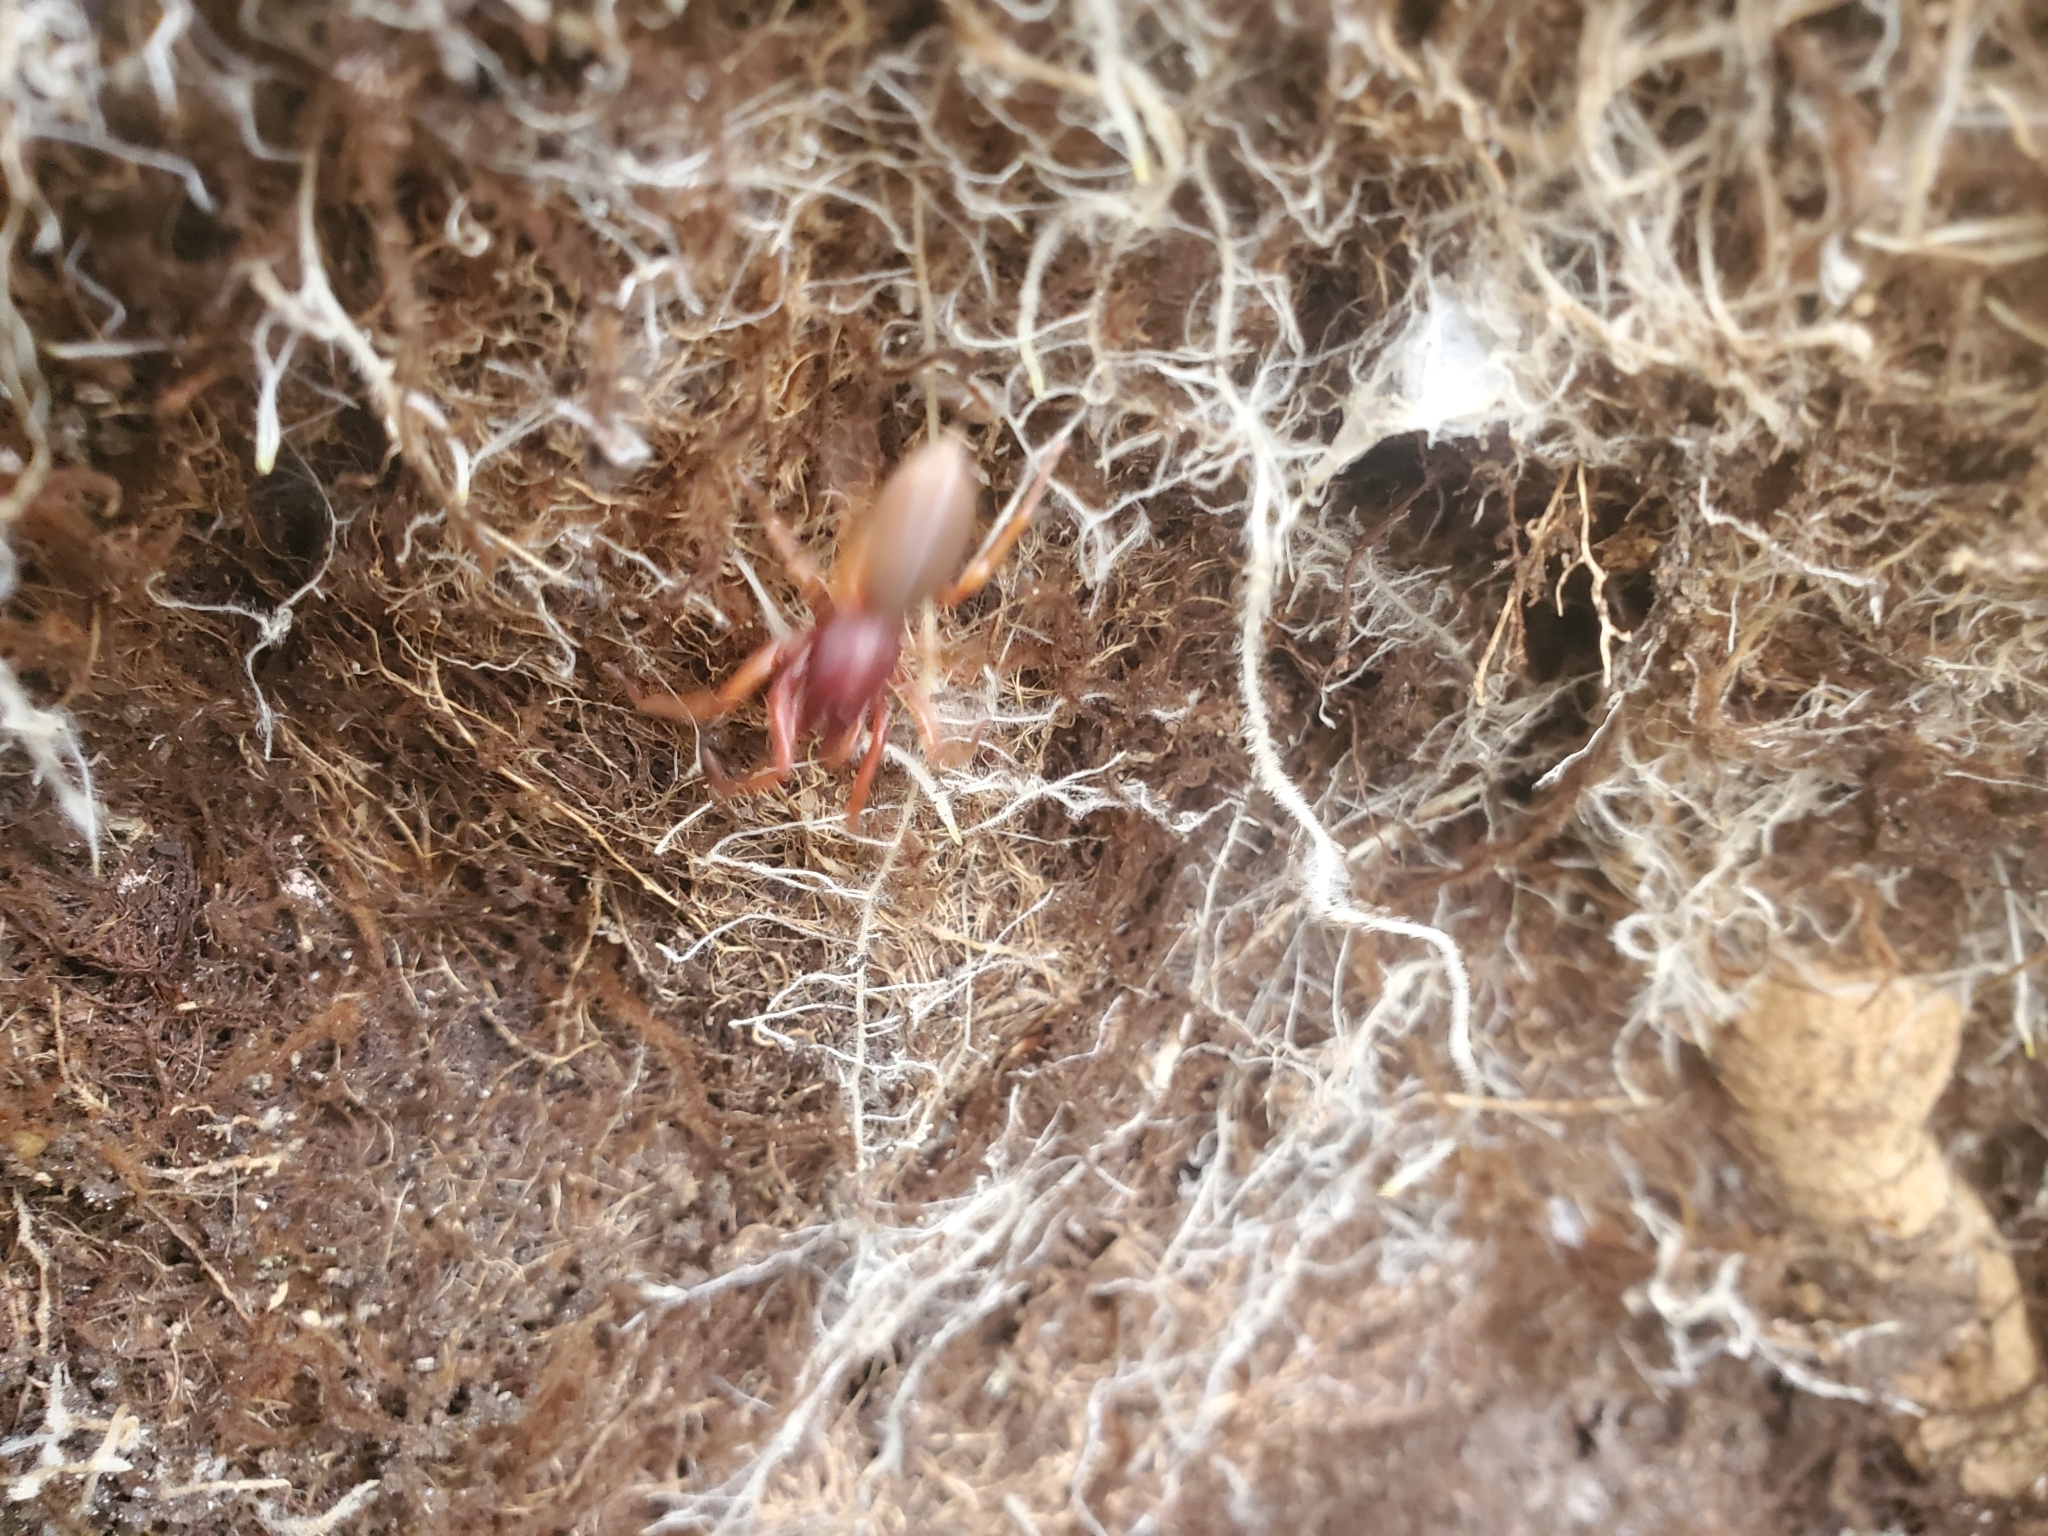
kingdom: Animalia
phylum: Arthropoda
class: Arachnida
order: Araneae
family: Dysderidae
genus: Dysdera
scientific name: Dysdera crocata
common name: Woodlouse spider
